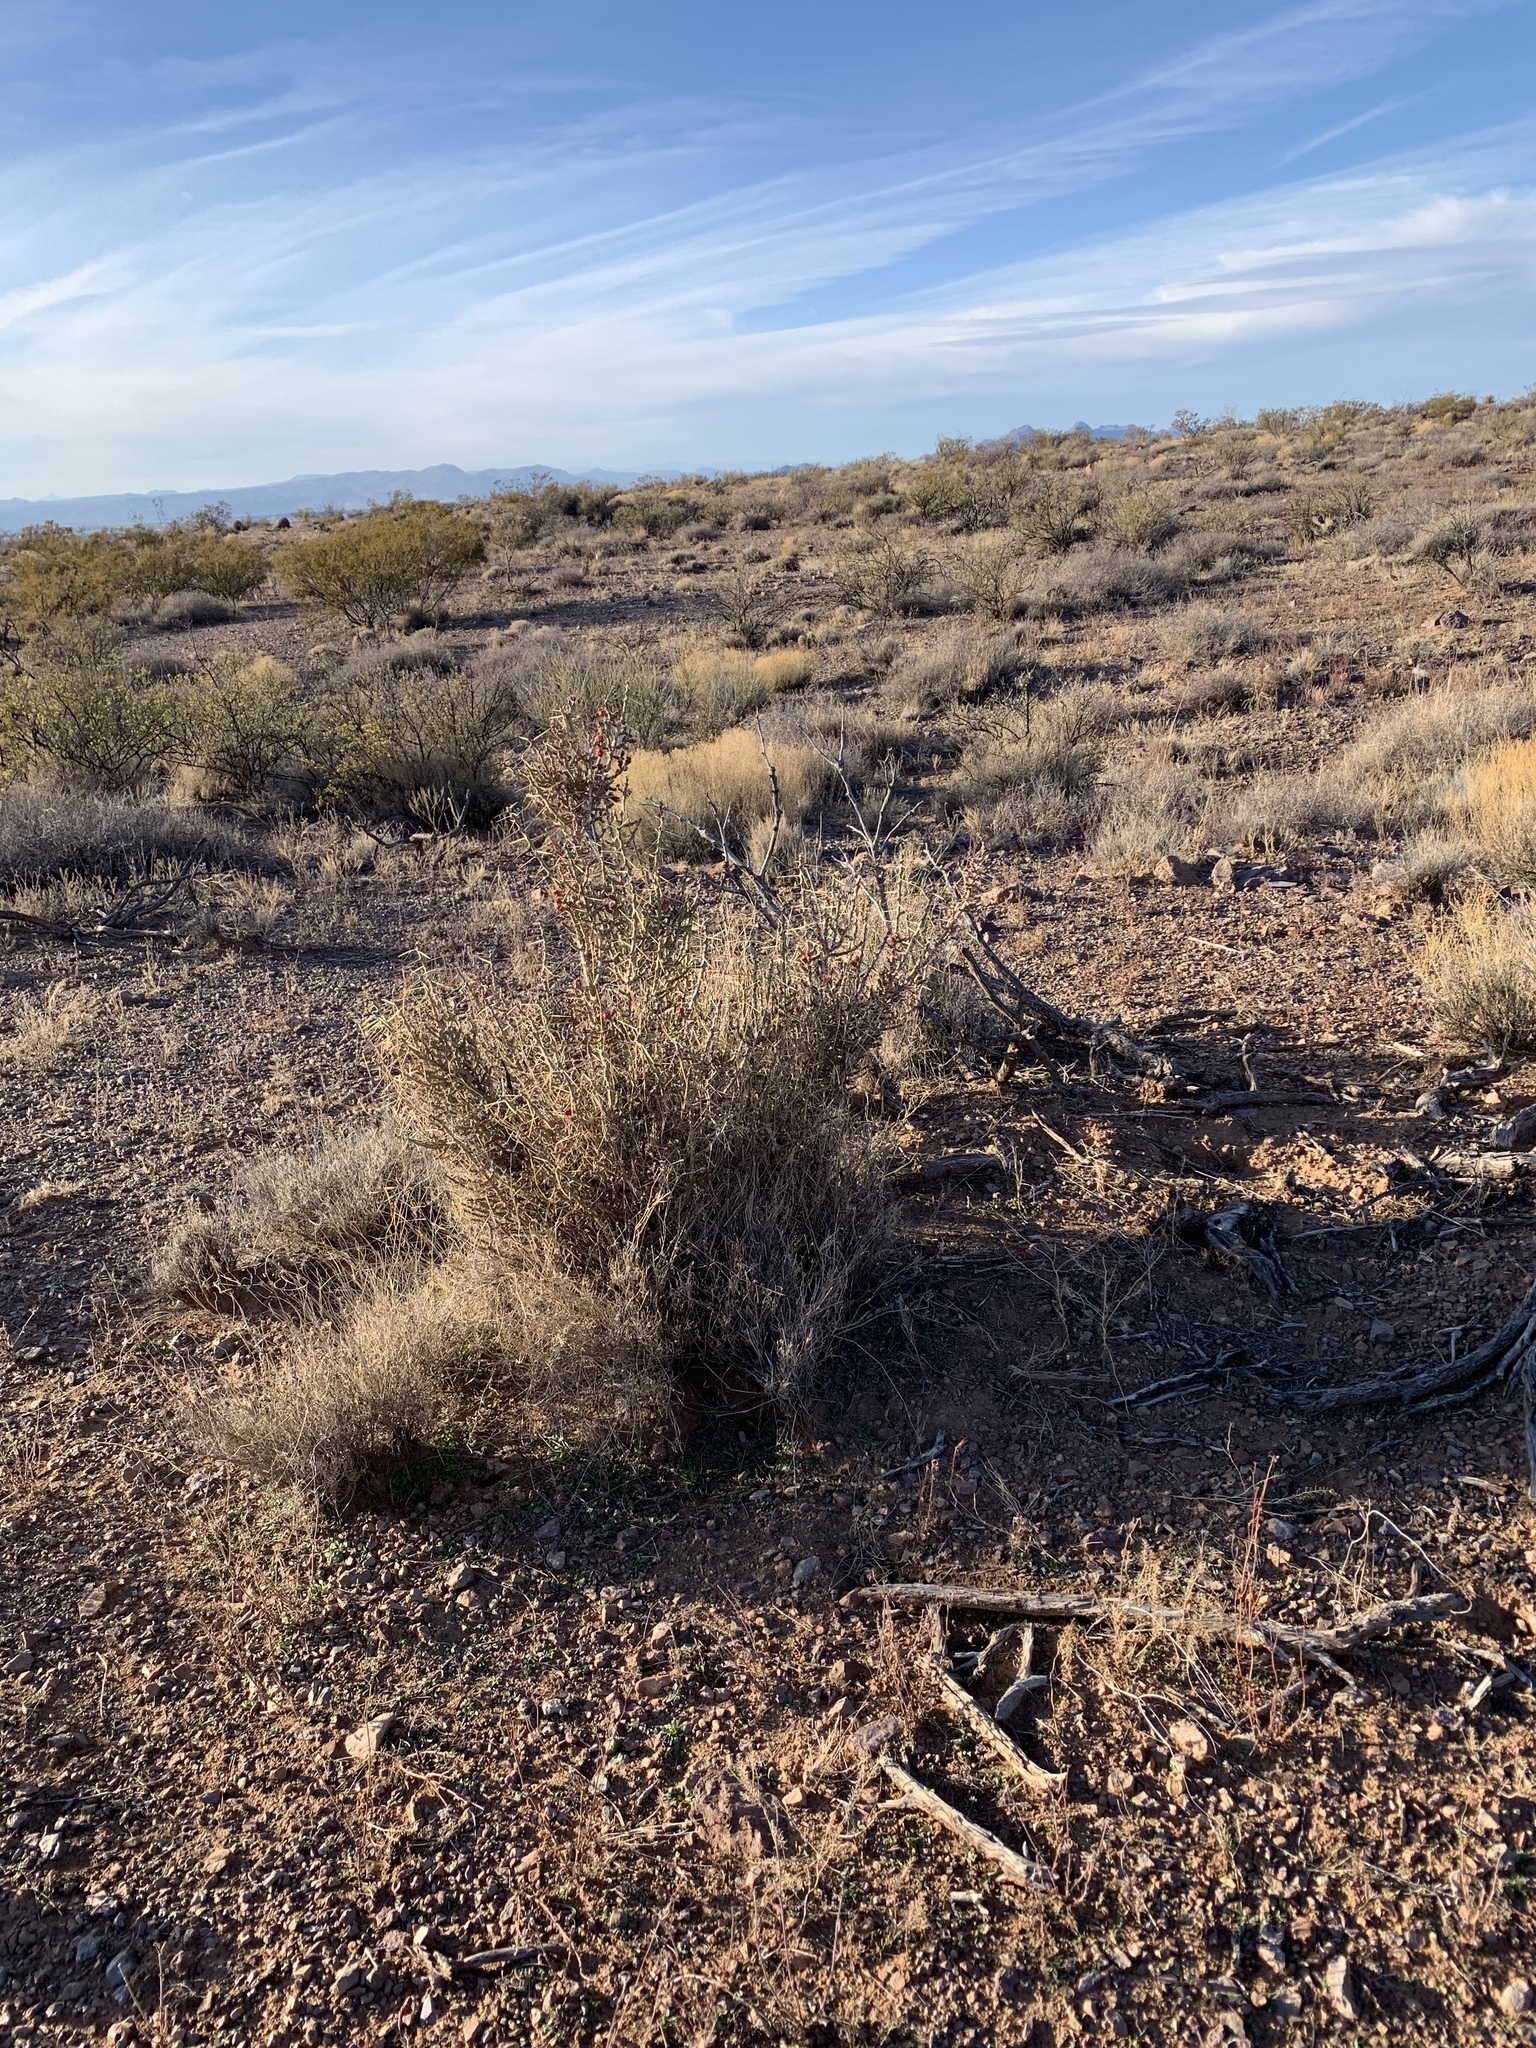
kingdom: Plantae
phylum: Tracheophyta
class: Magnoliopsida
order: Caryophyllales
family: Cactaceae
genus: Cylindropuntia
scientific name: Cylindropuntia leptocaulis
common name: Christmas cactus
